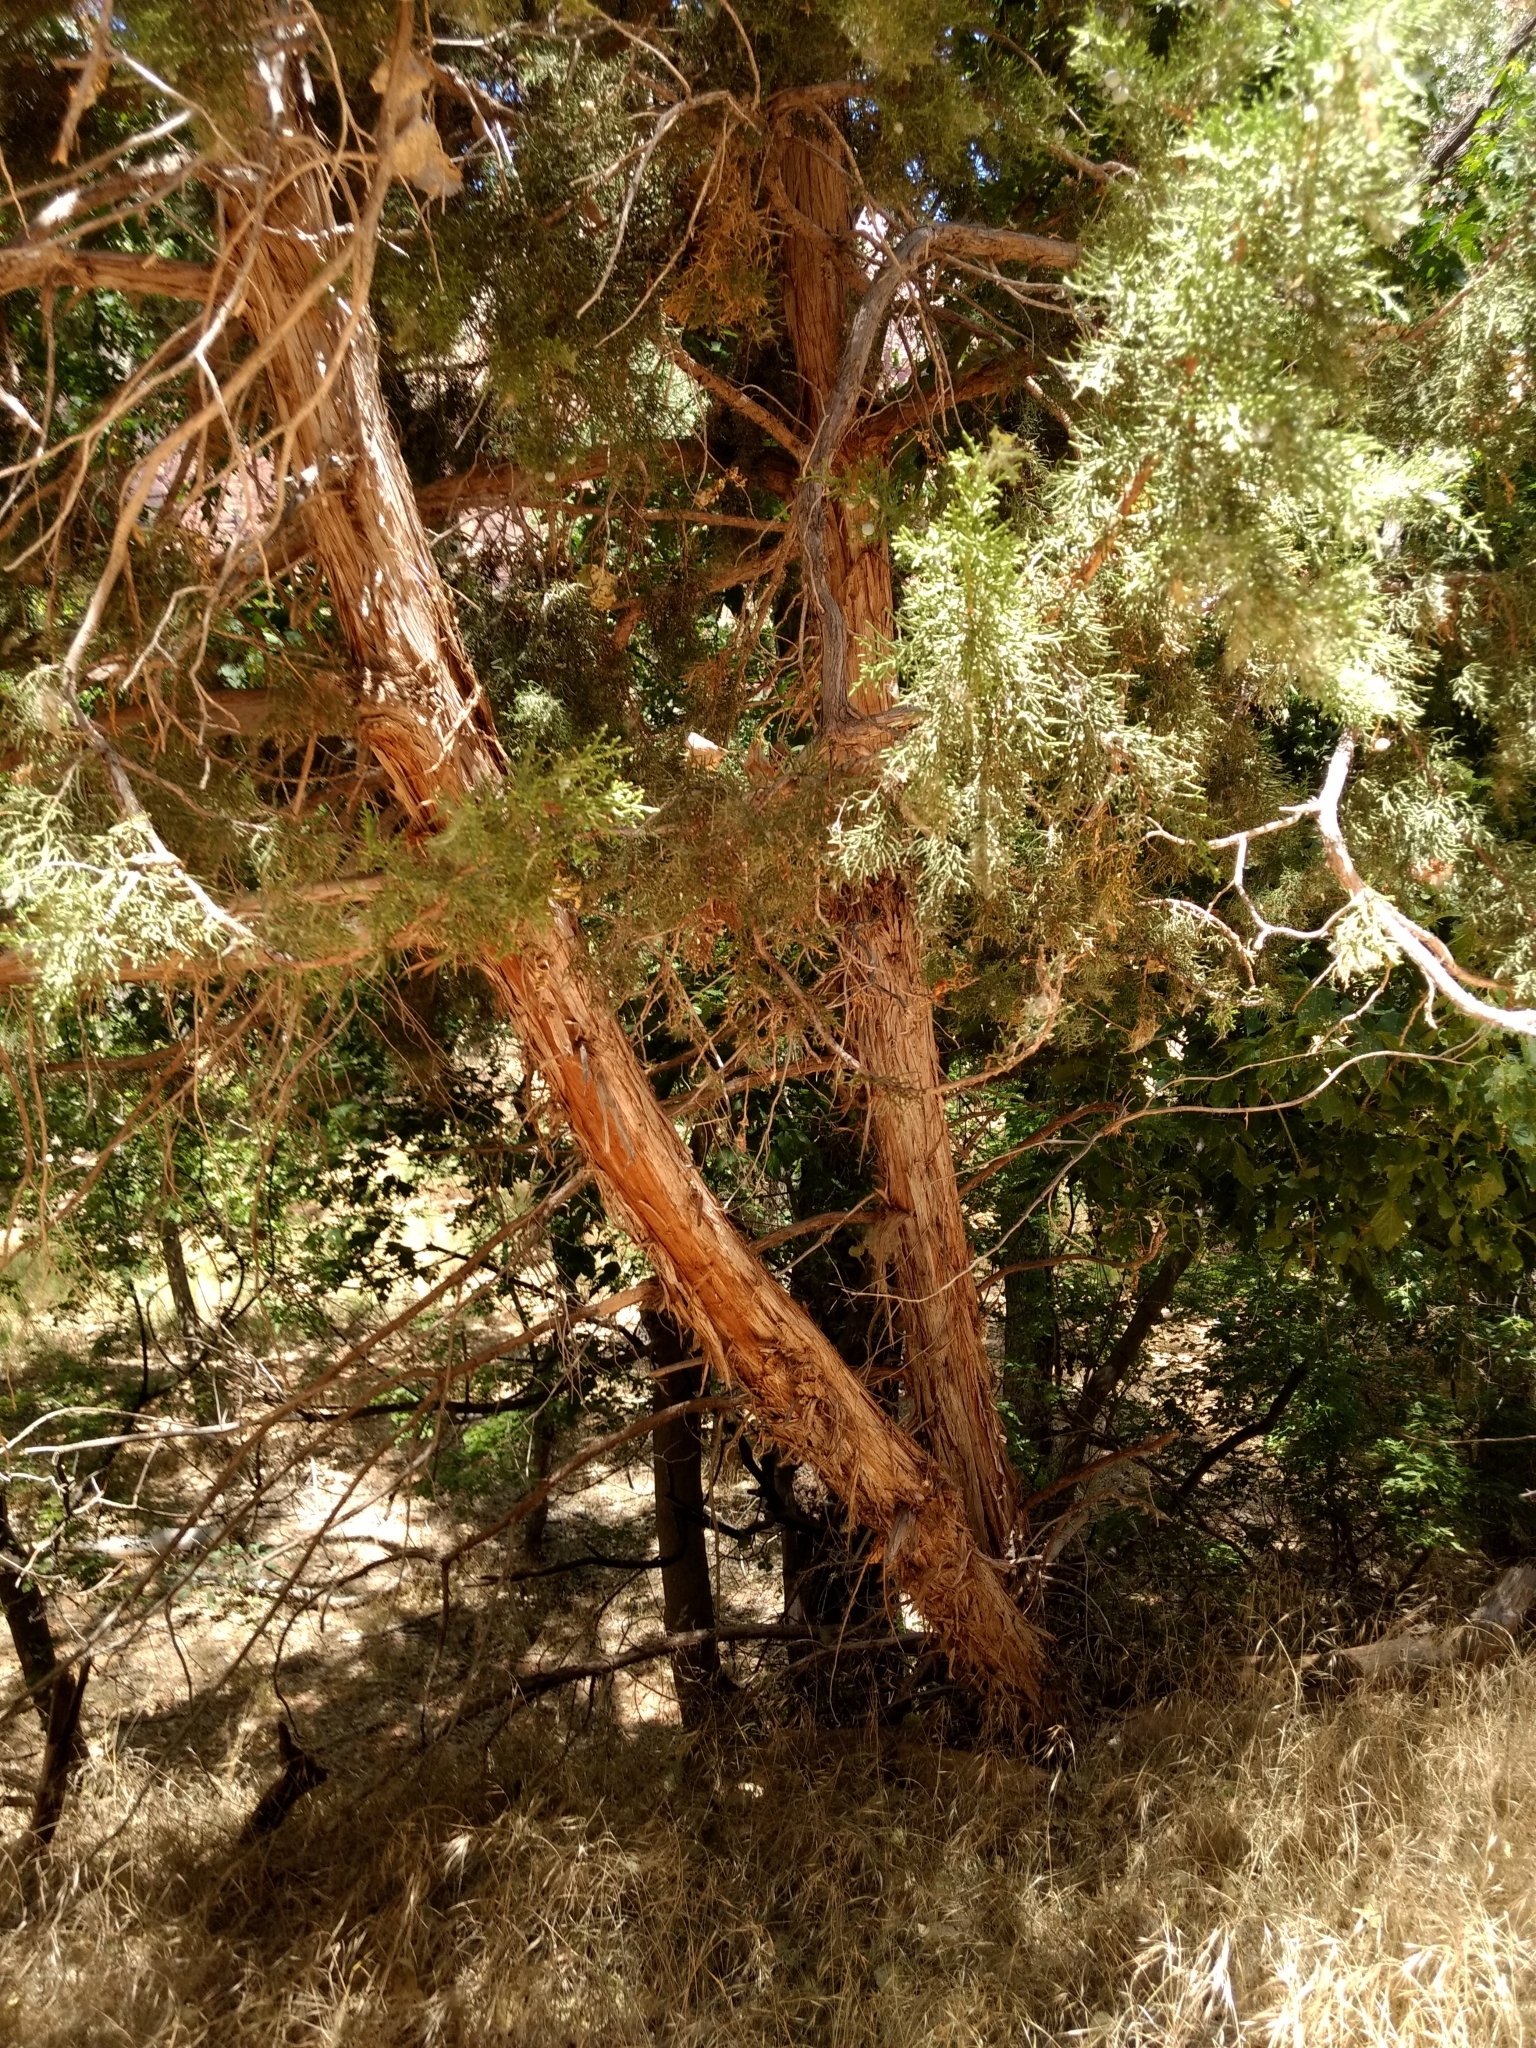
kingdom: Plantae
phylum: Tracheophyta
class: Pinopsida
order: Pinales
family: Cupressaceae
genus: Juniperus
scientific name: Juniperus osteosperma
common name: Utah juniper
